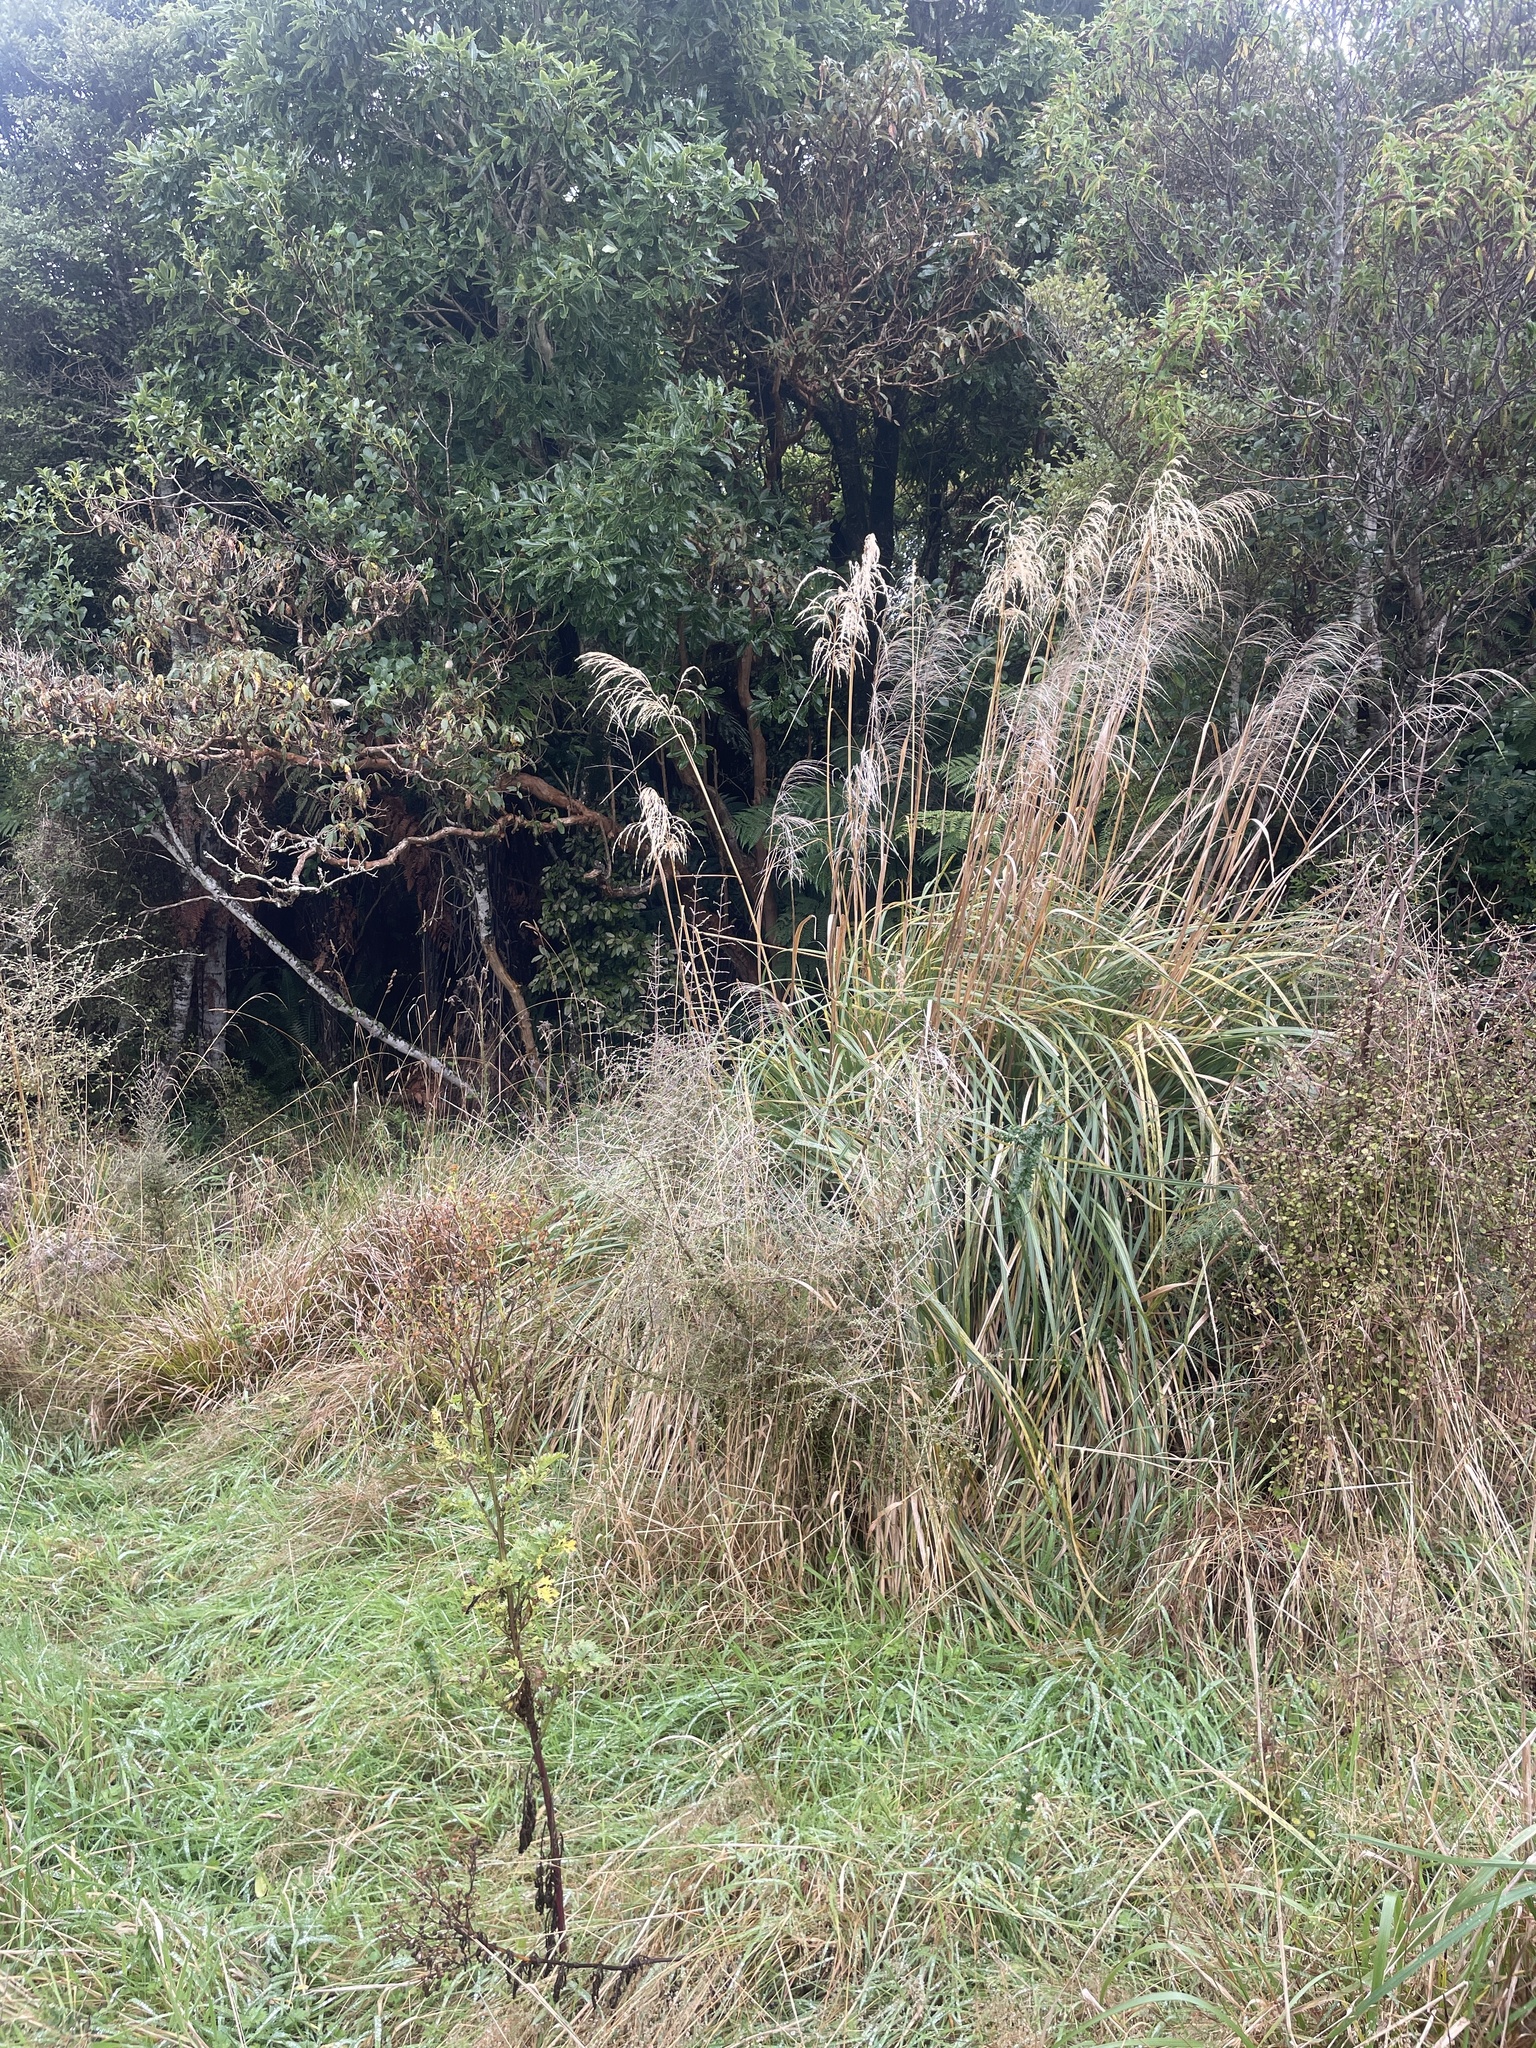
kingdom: Plantae
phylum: Tracheophyta
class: Liliopsida
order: Poales
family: Poaceae
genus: Chionochloa
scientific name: Chionochloa conspicua
